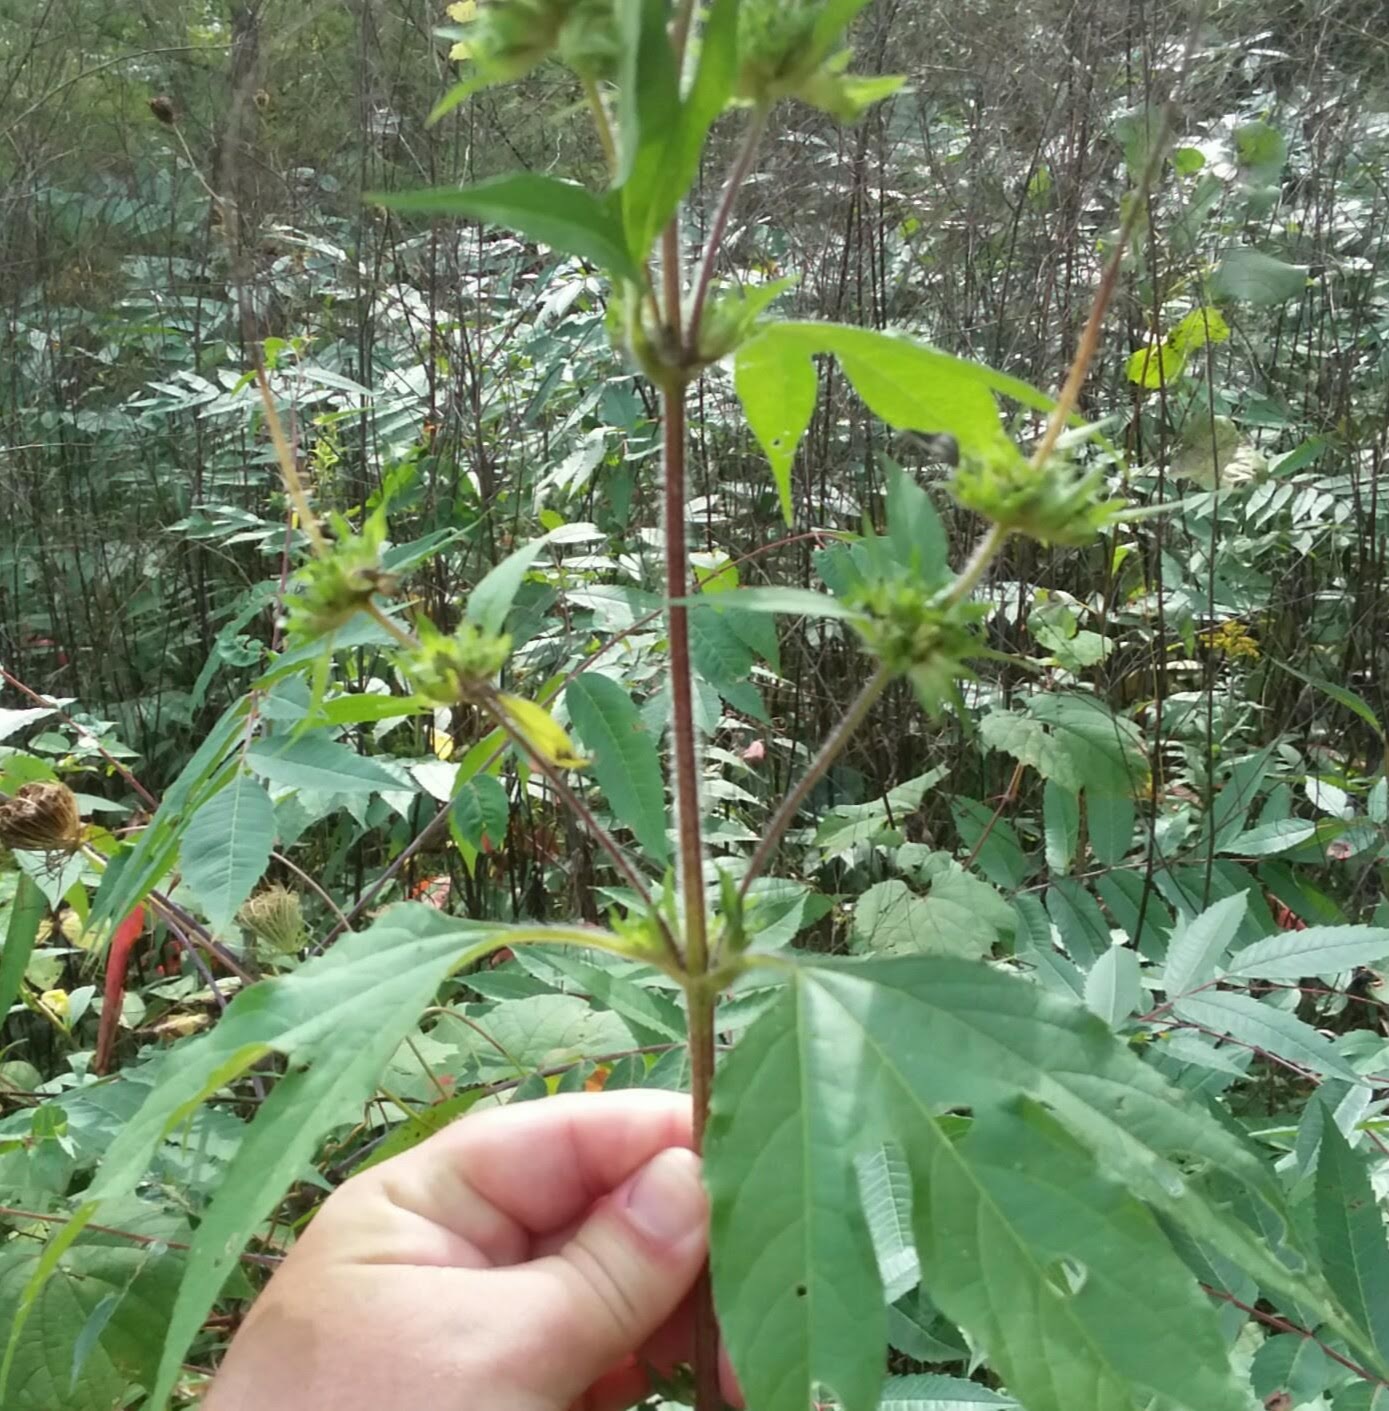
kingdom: Plantae
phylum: Tracheophyta
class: Magnoliopsida
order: Asterales
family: Asteraceae
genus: Ambrosia
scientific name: Ambrosia trifida
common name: Giant ragweed
